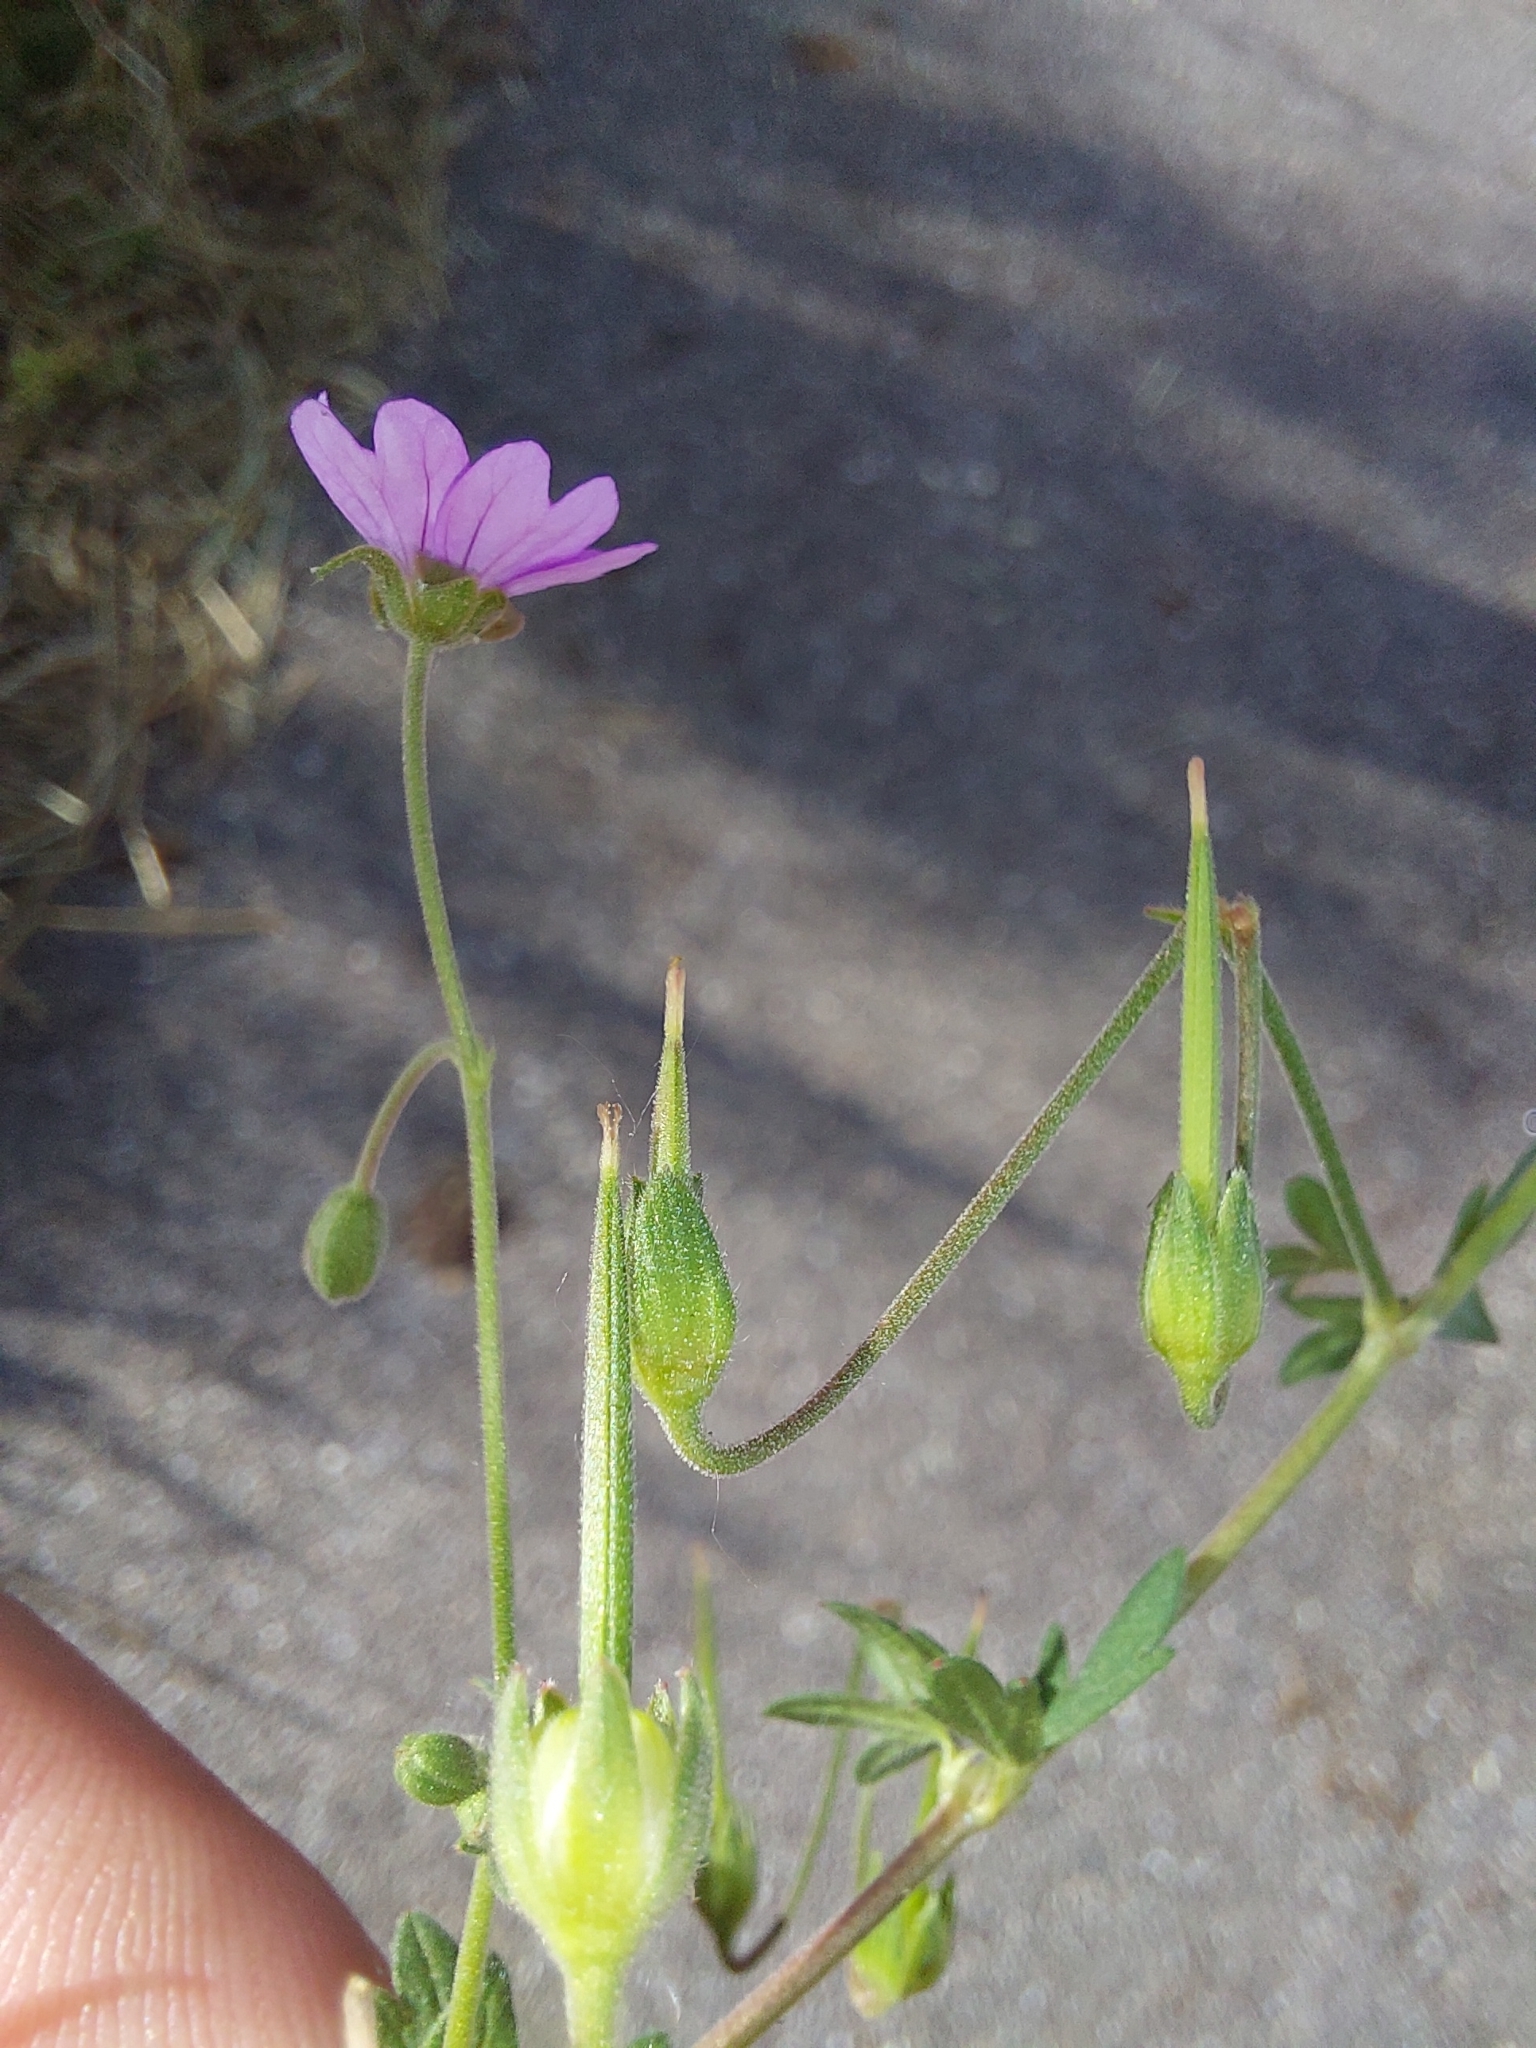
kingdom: Plantae
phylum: Tracheophyta
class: Magnoliopsida
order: Geraniales
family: Geraniaceae
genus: Geranium
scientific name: Geranium pyrenaicum
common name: Hedgerow crane's-bill
